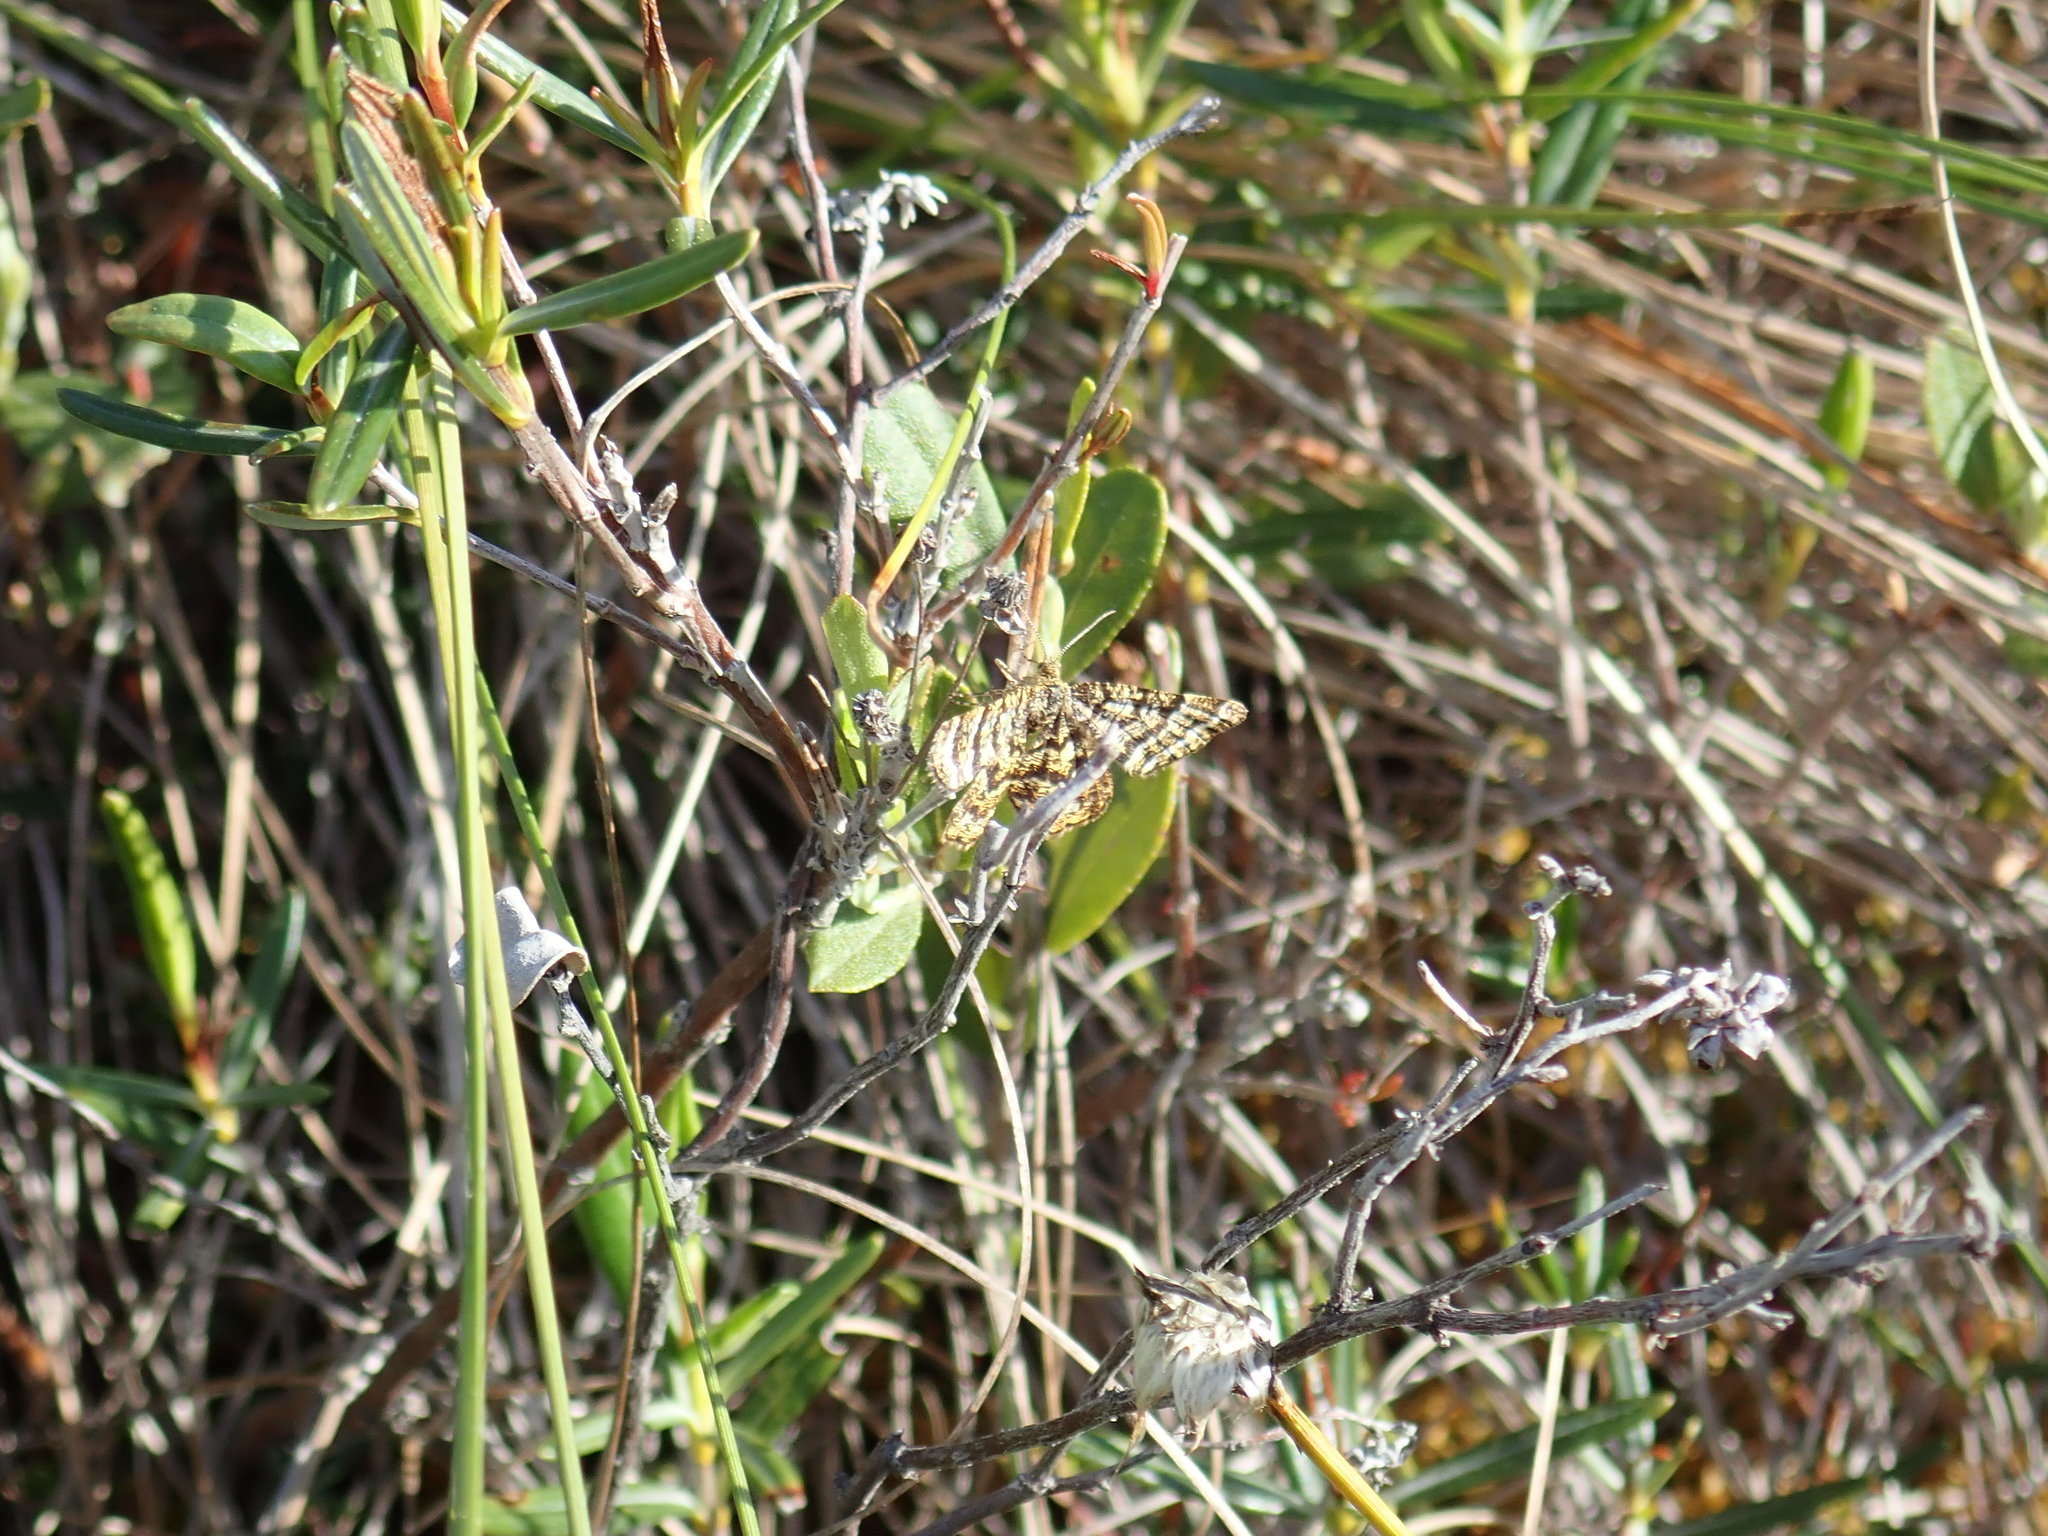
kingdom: Animalia
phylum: Arthropoda
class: Insecta
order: Lepidoptera
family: Geometridae
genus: Macaria
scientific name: Macaria truncataria
